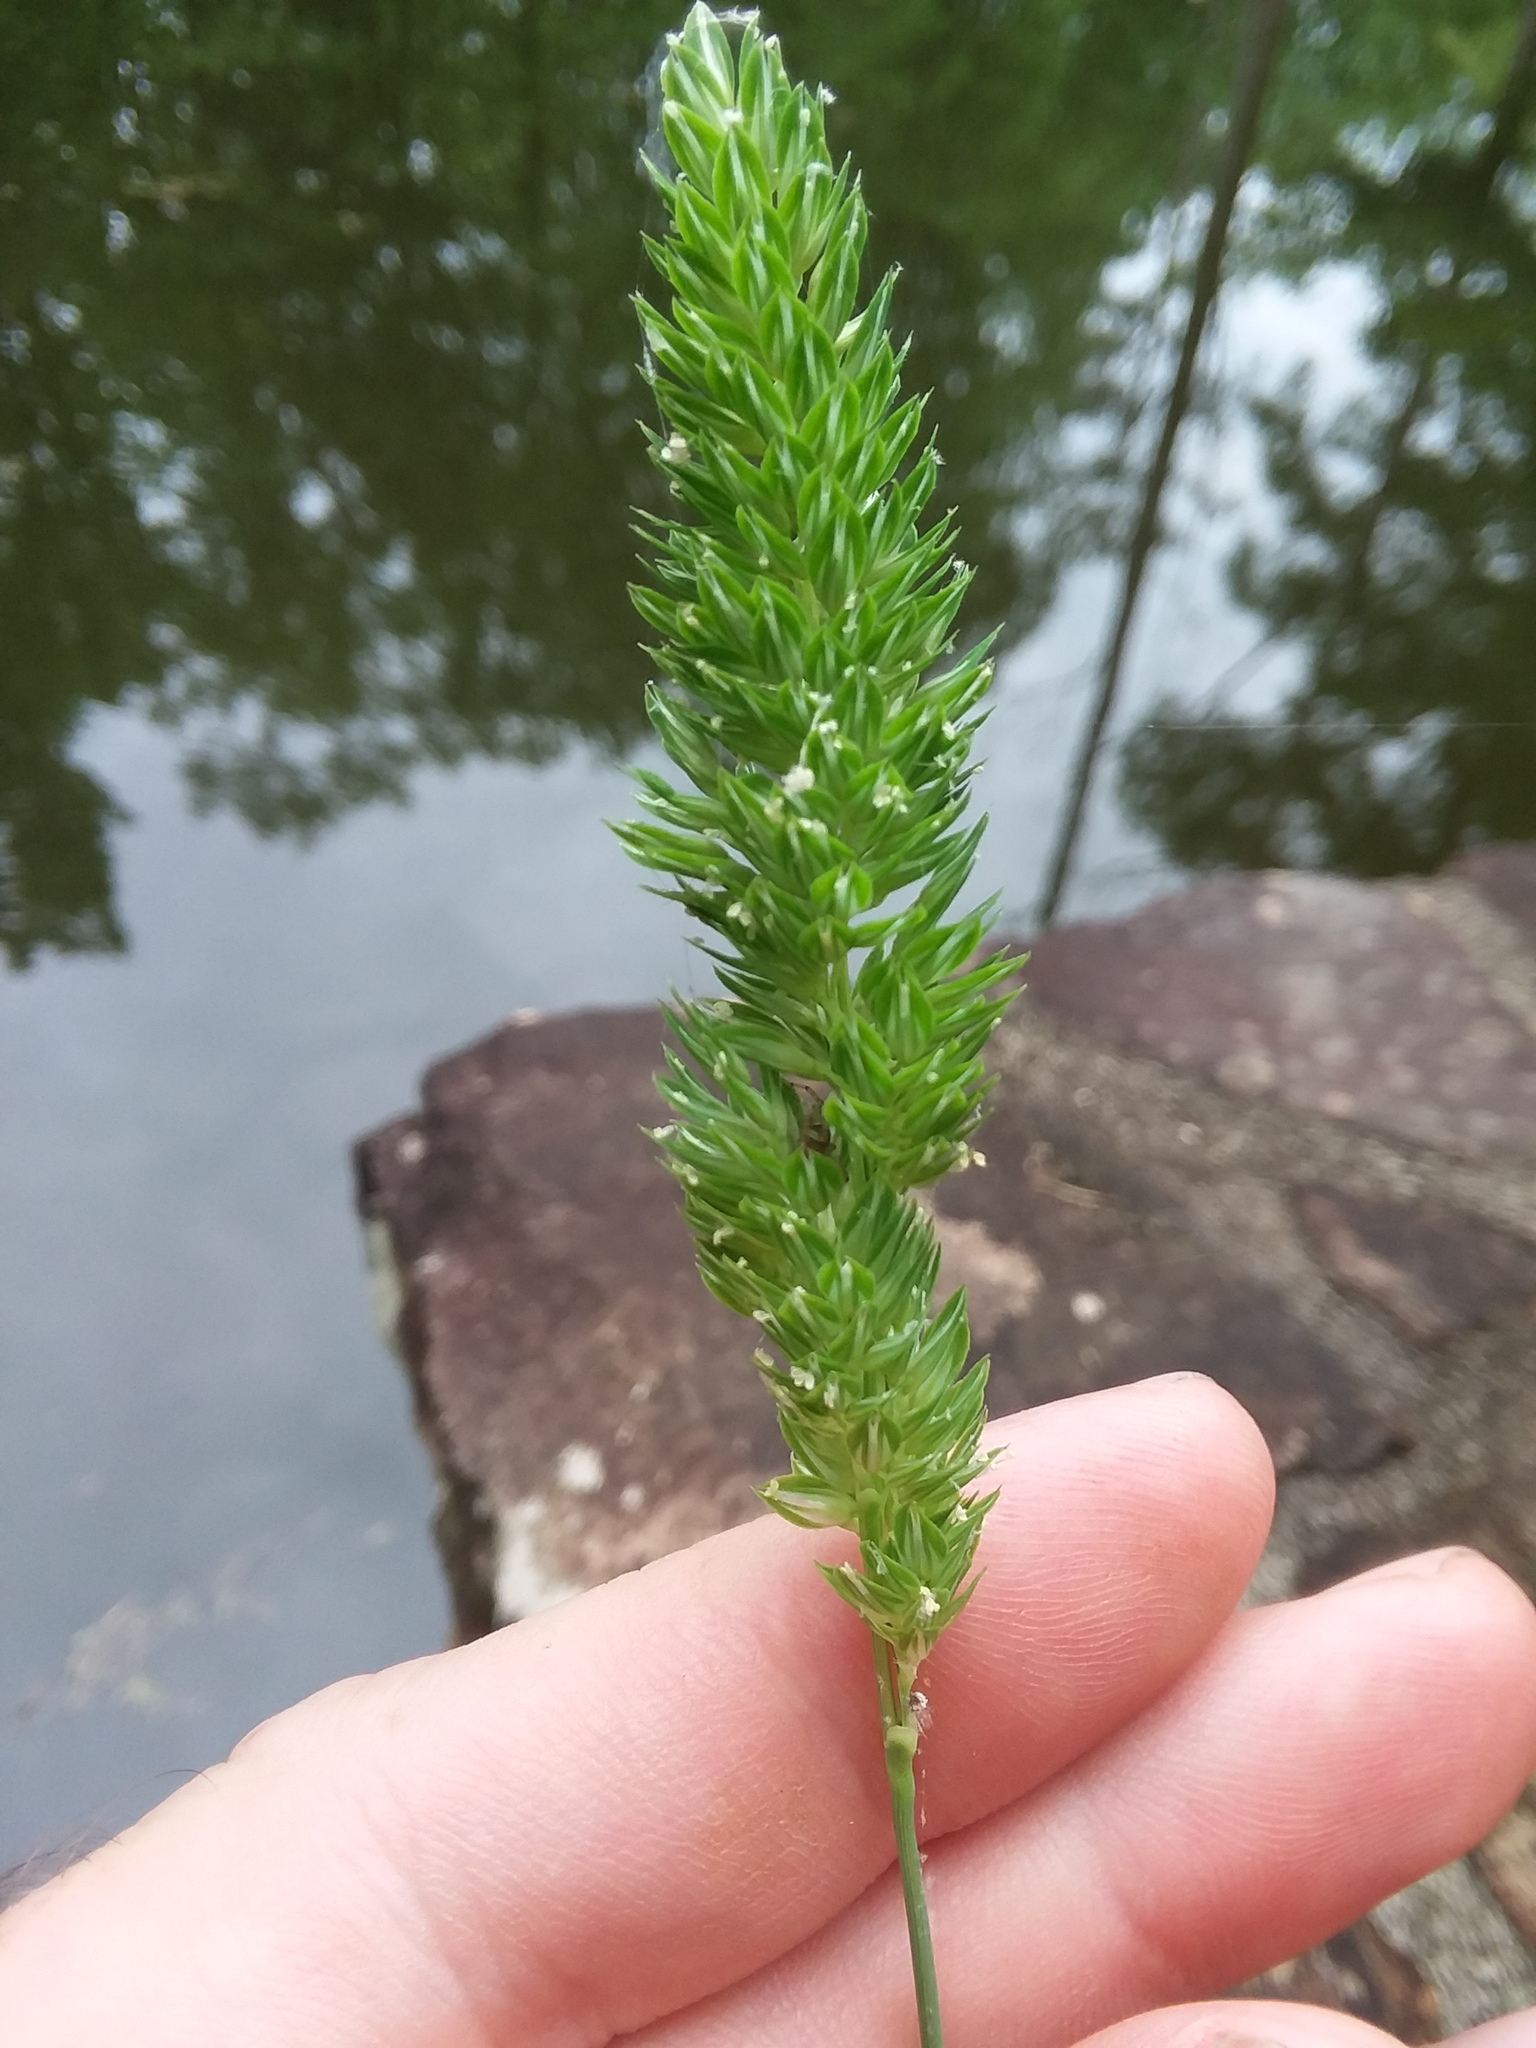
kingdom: Plantae
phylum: Tracheophyta
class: Liliopsida
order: Poales
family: Poaceae
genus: Phalaris
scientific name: Phalaris caroliniana
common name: May grass
